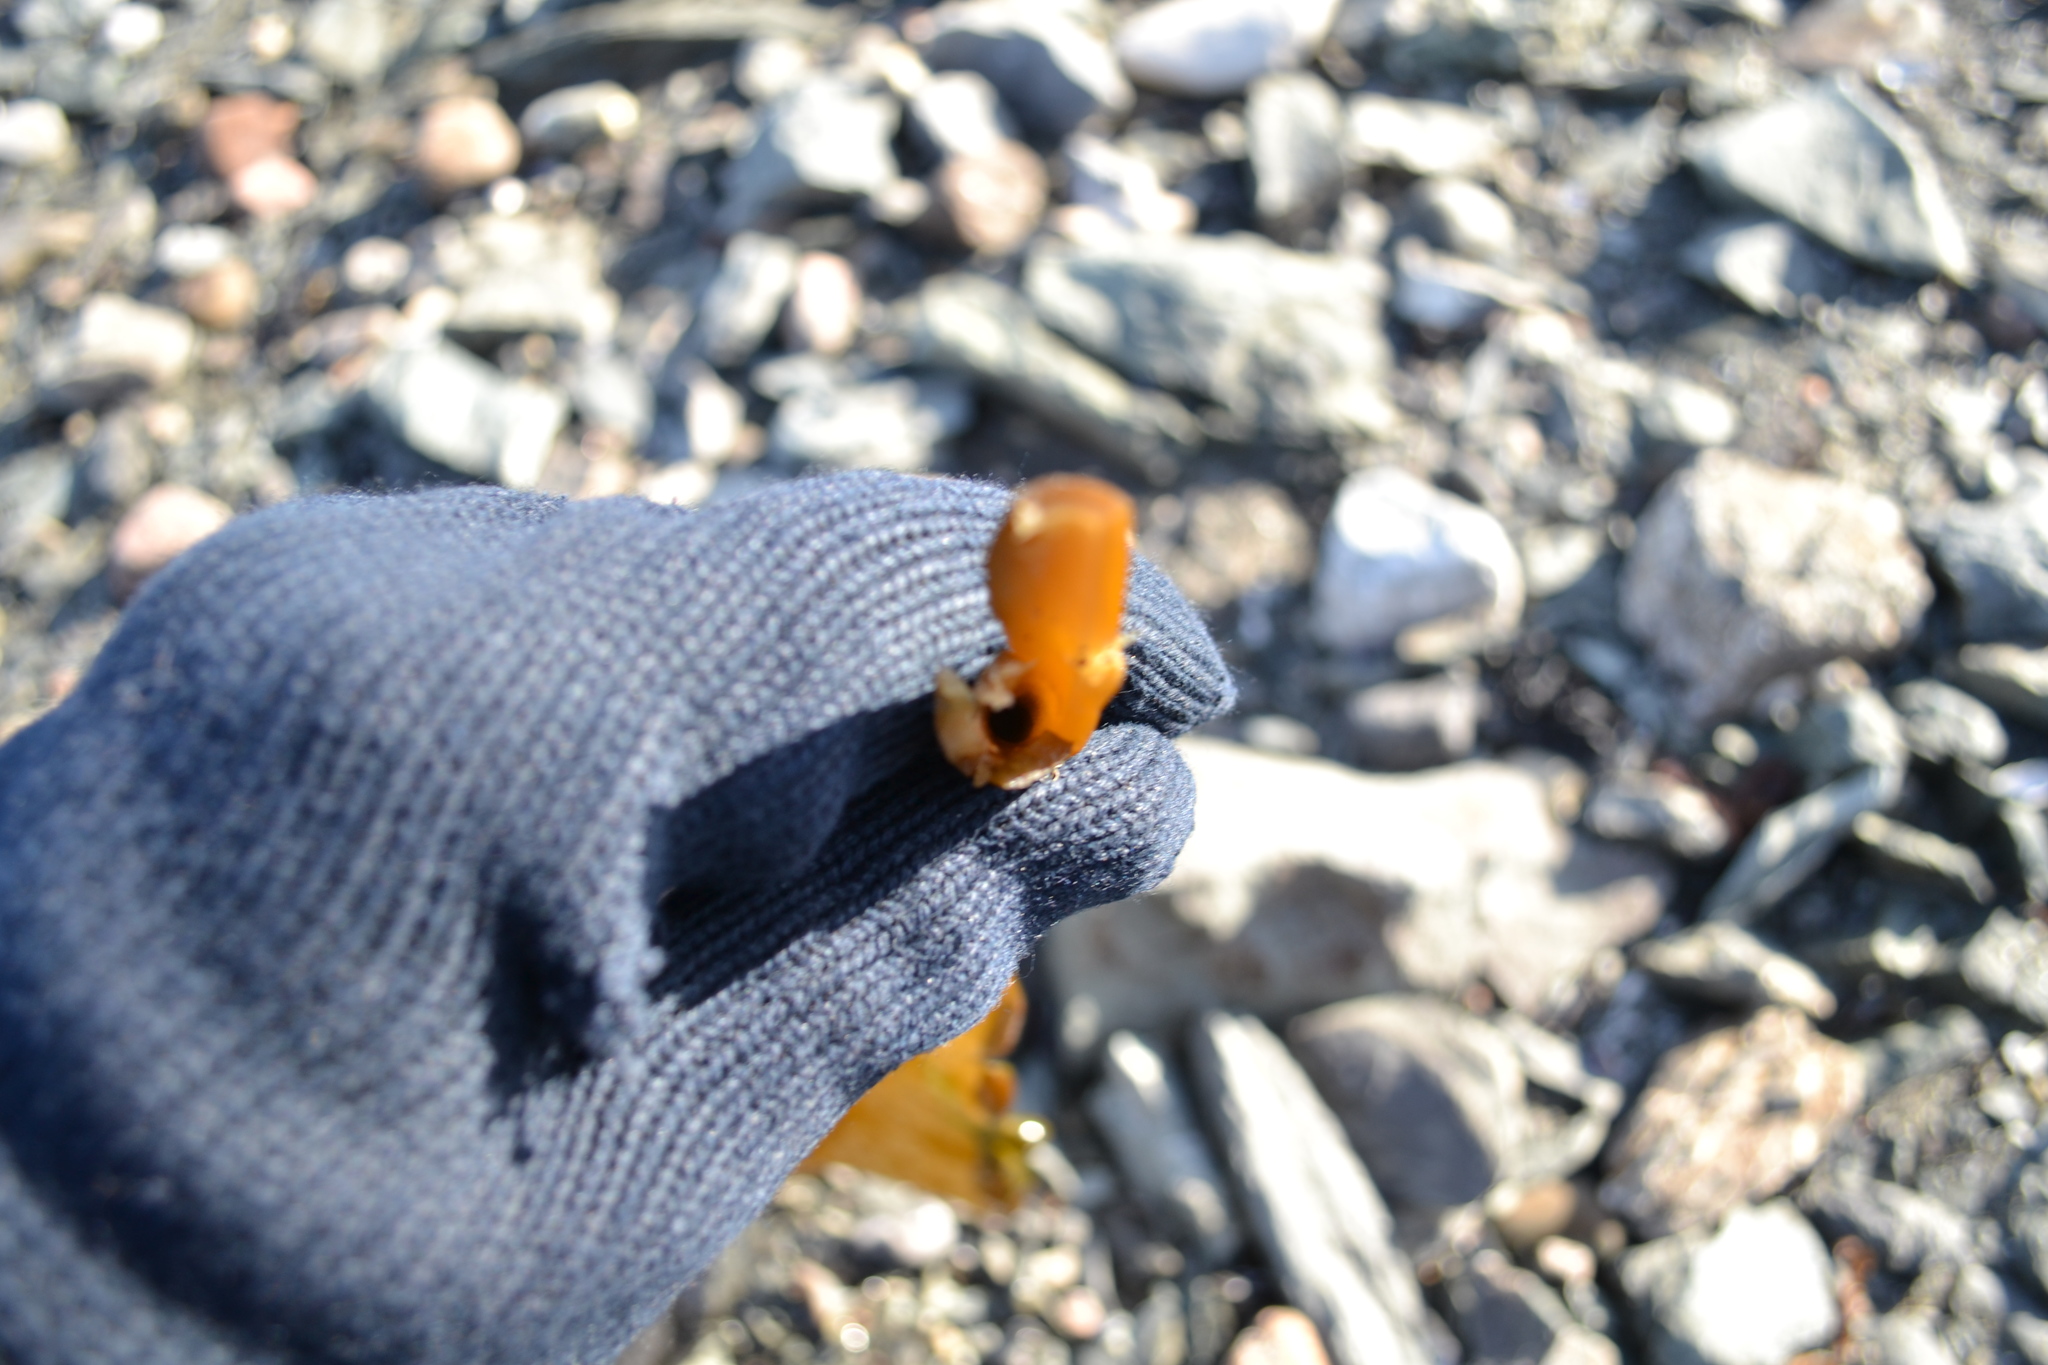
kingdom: Chromista
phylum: Ochrophyta
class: Phaeophyceae
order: Laminariales
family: Laminariaceae
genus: Saccharina
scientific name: Saccharina longicruris
